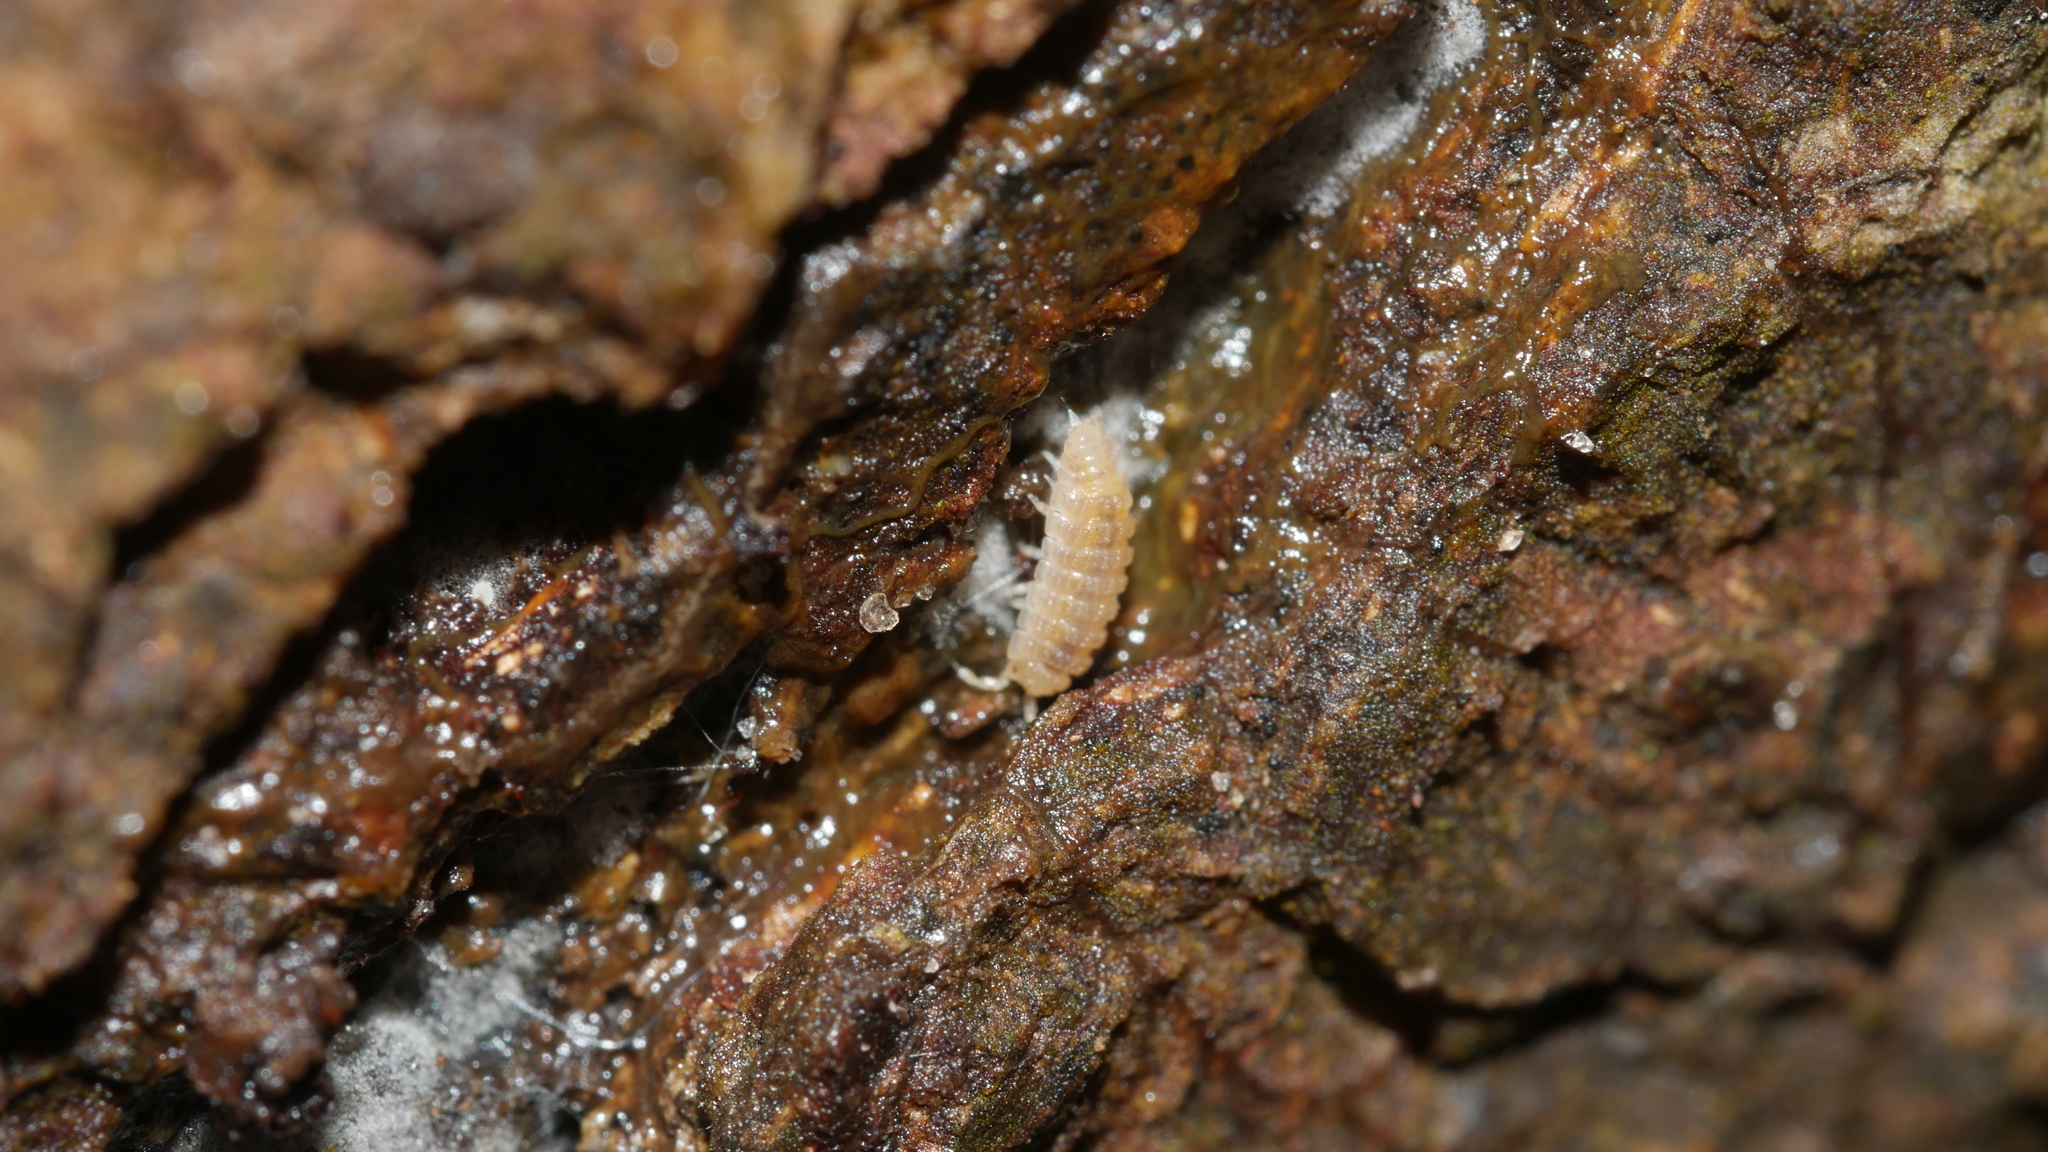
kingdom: Animalia
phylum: Arthropoda
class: Malacostraca
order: Isopoda
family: Trichoniscidae
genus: Haplophthalmus
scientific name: Haplophthalmus danicus
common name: Pillbug
